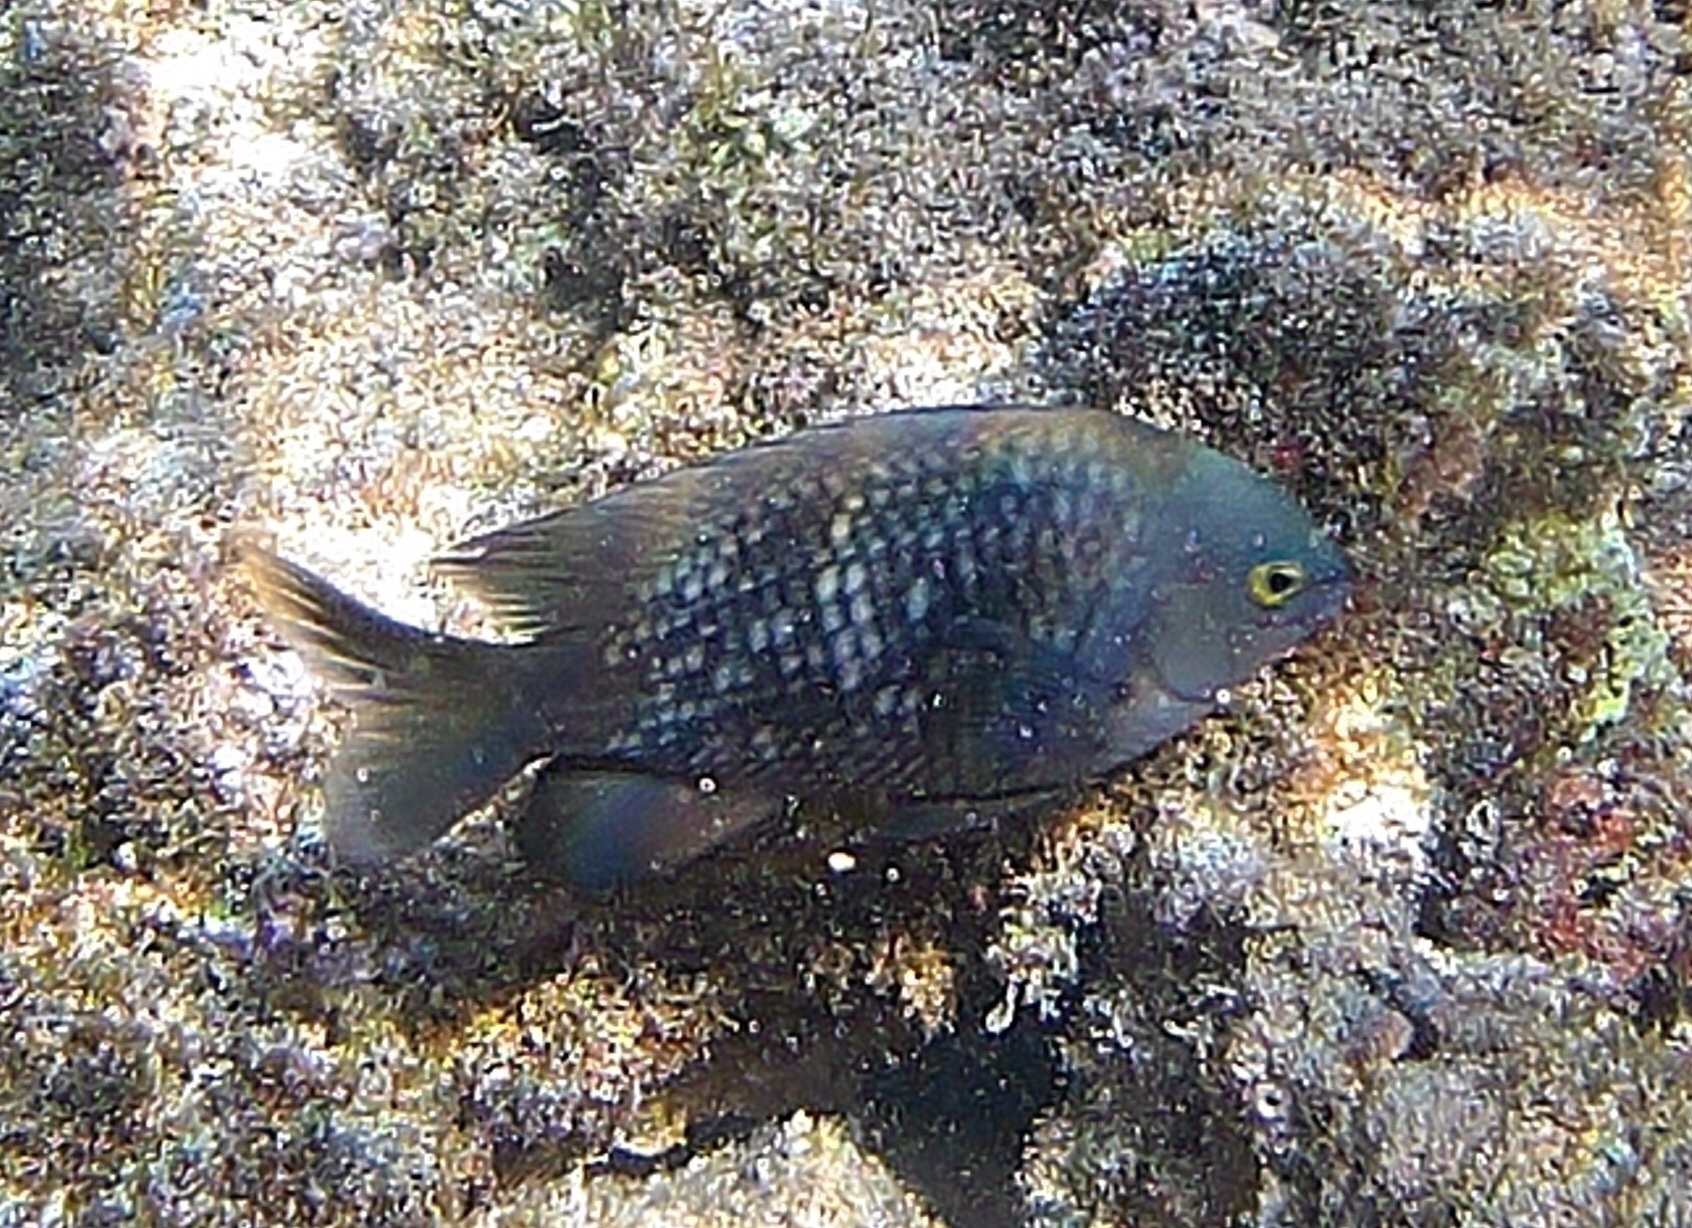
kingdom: Animalia
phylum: Chordata
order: Perciformes
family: Pomacentridae
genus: Stegastes
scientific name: Stegastes fasciolatus
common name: Pacific gregory
